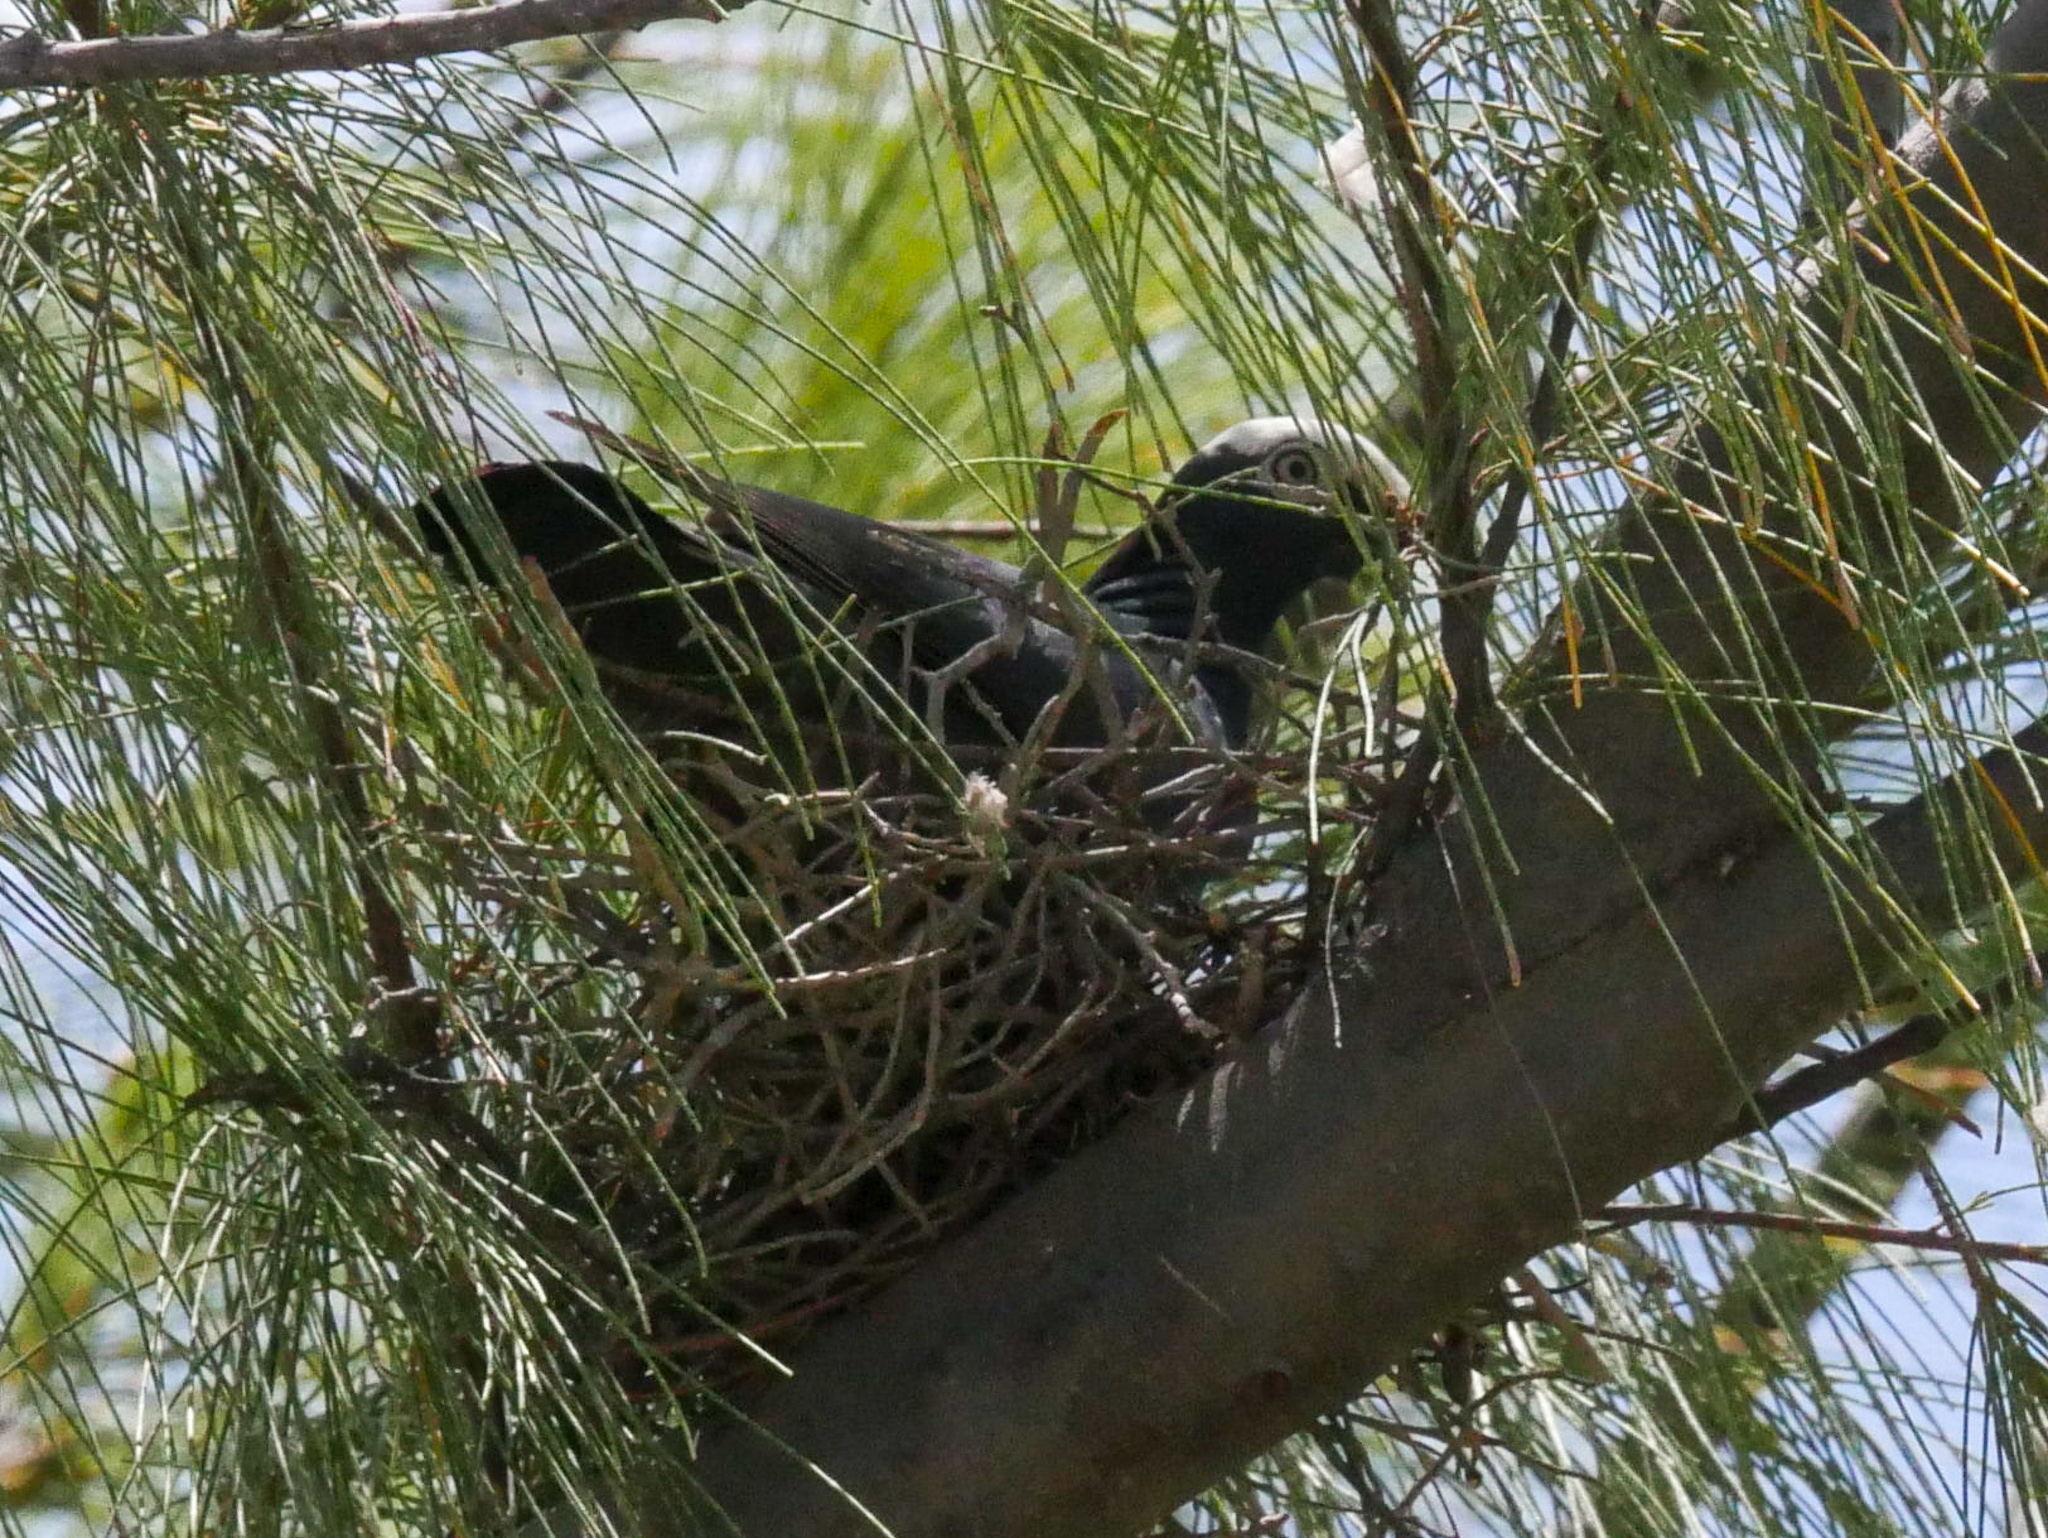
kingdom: Animalia
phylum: Chordata
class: Aves
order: Columbiformes
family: Columbidae
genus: Patagioenas
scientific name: Patagioenas leucocephala
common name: White-crowned pigeon
